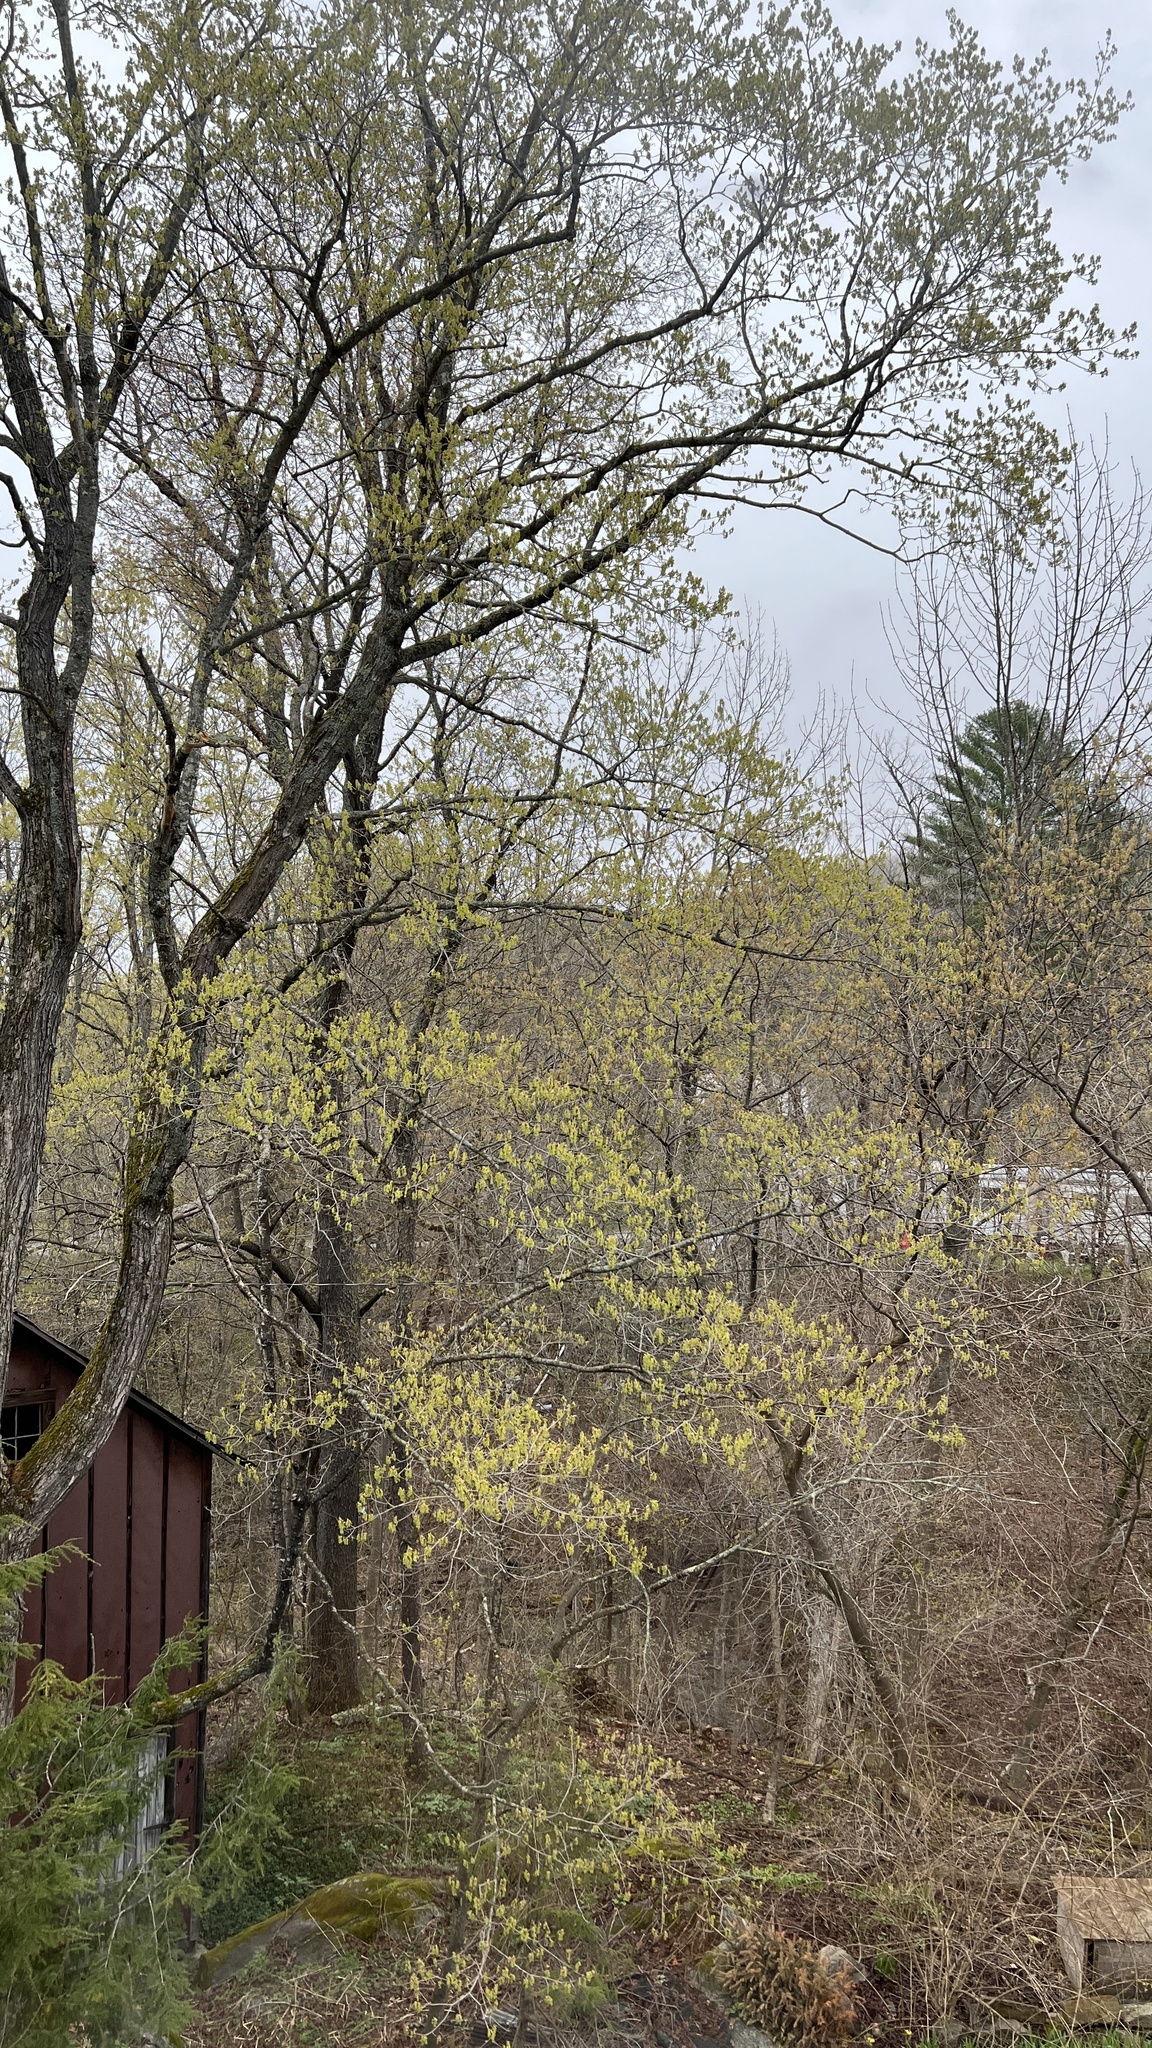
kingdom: Plantae
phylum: Tracheophyta
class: Magnoliopsida
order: Sapindales
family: Sapindaceae
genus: Acer
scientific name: Acer saccharum
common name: Sugar maple
